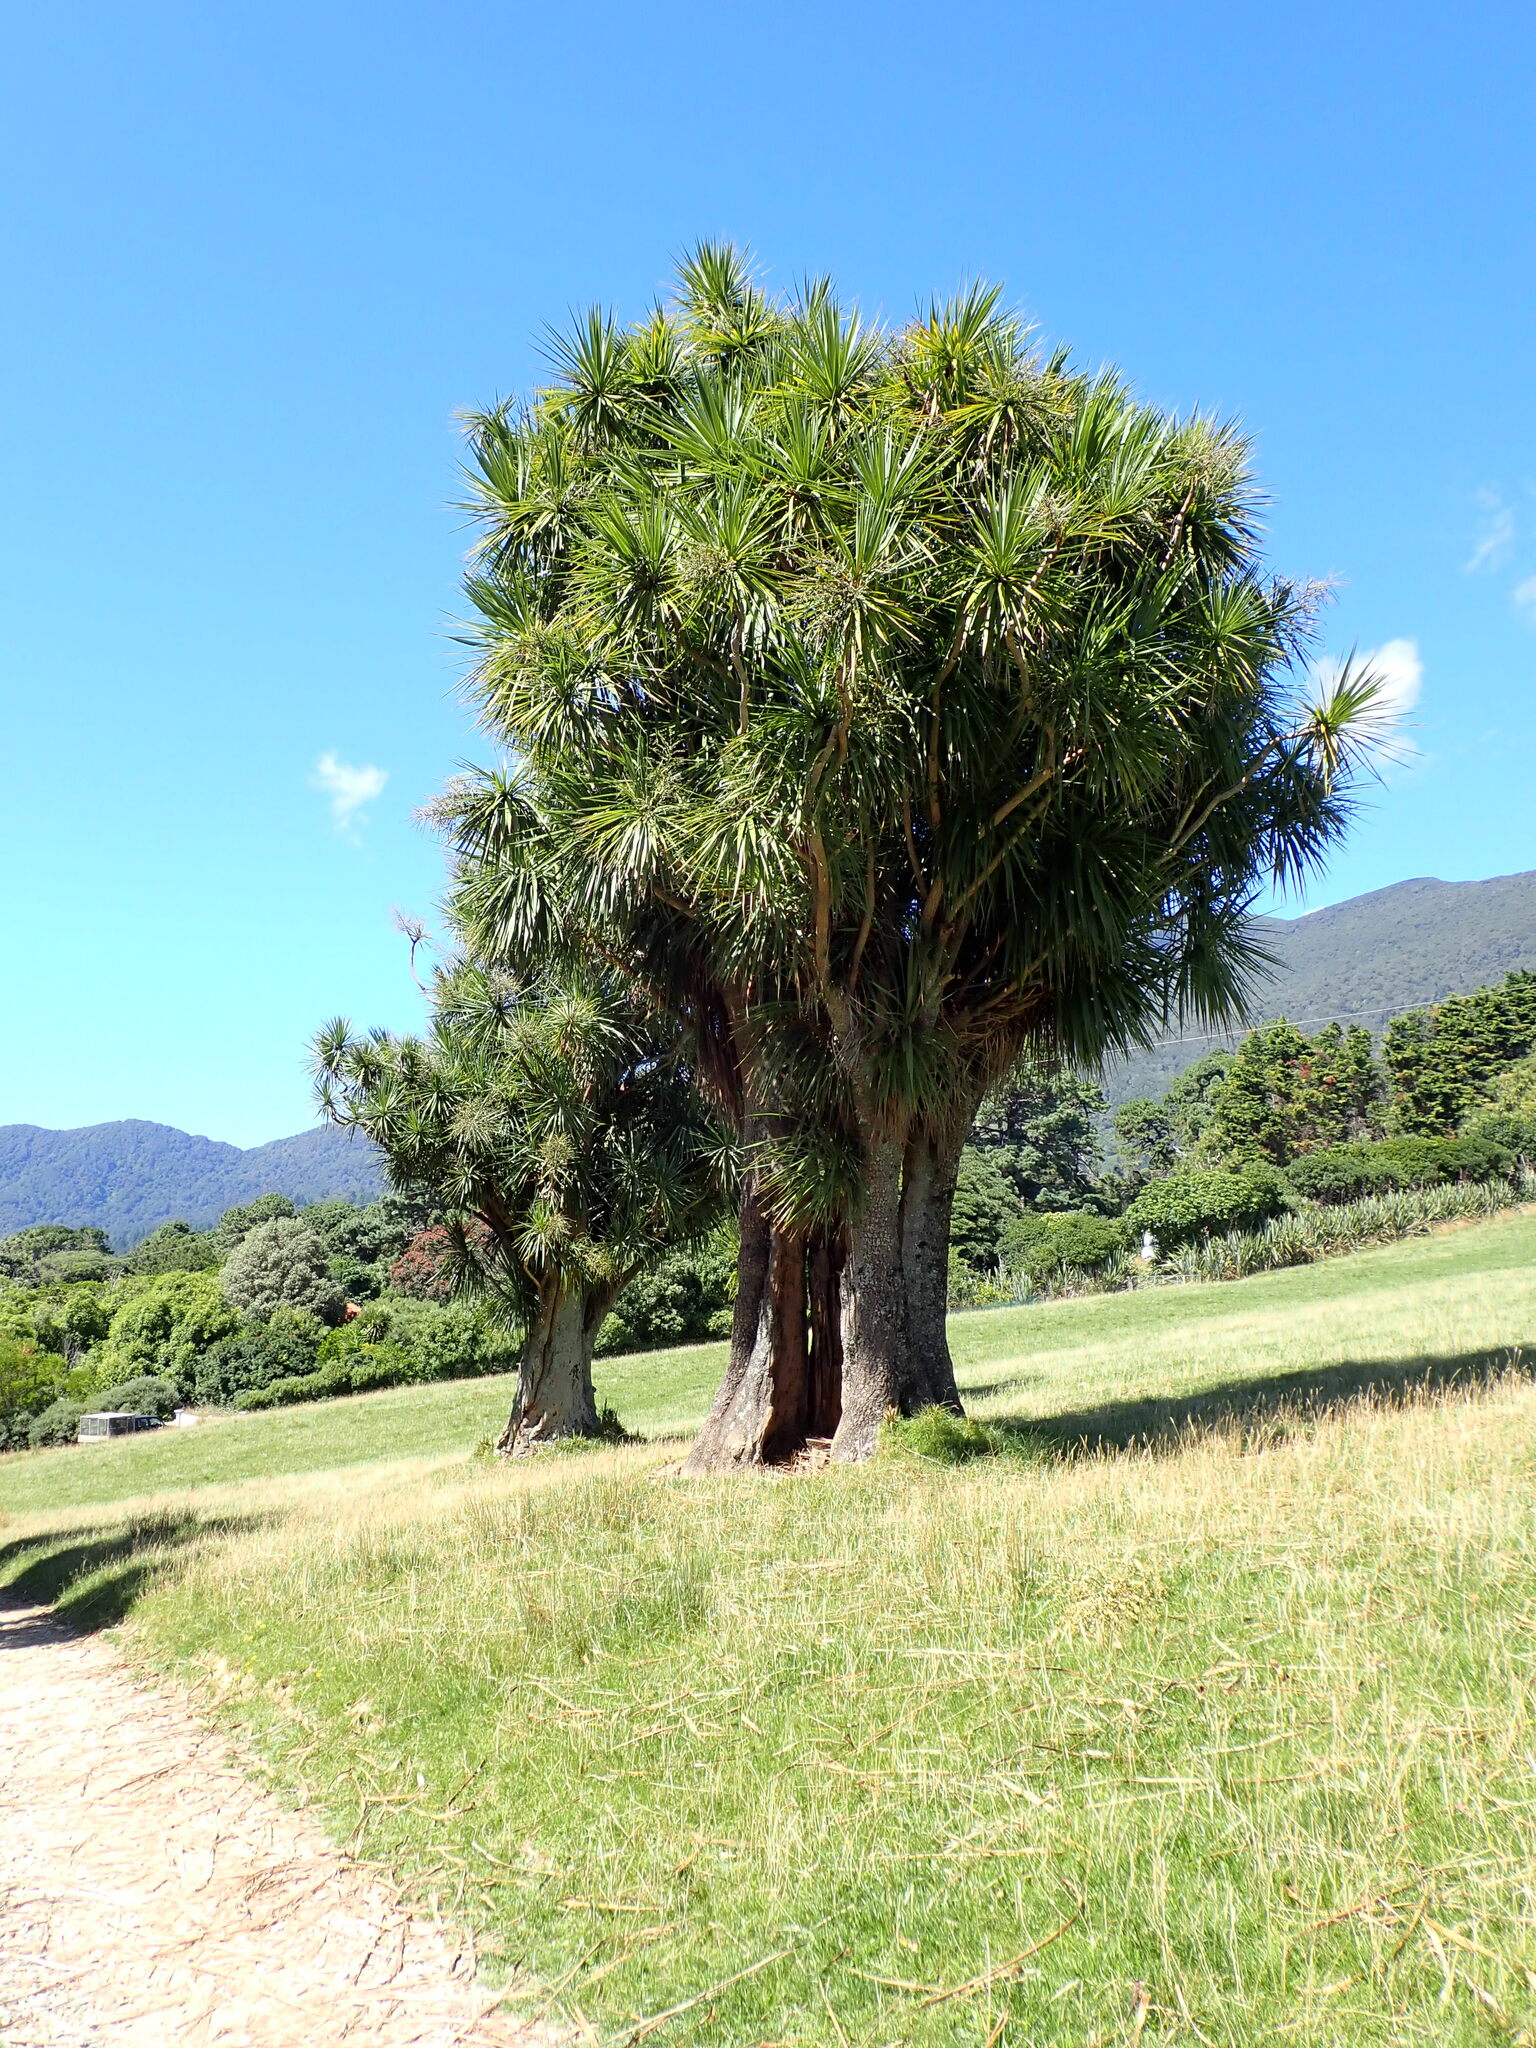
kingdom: Plantae
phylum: Tracheophyta
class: Liliopsida
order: Asparagales
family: Asparagaceae
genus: Cordyline
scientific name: Cordyline australis
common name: Cabbage-palm
